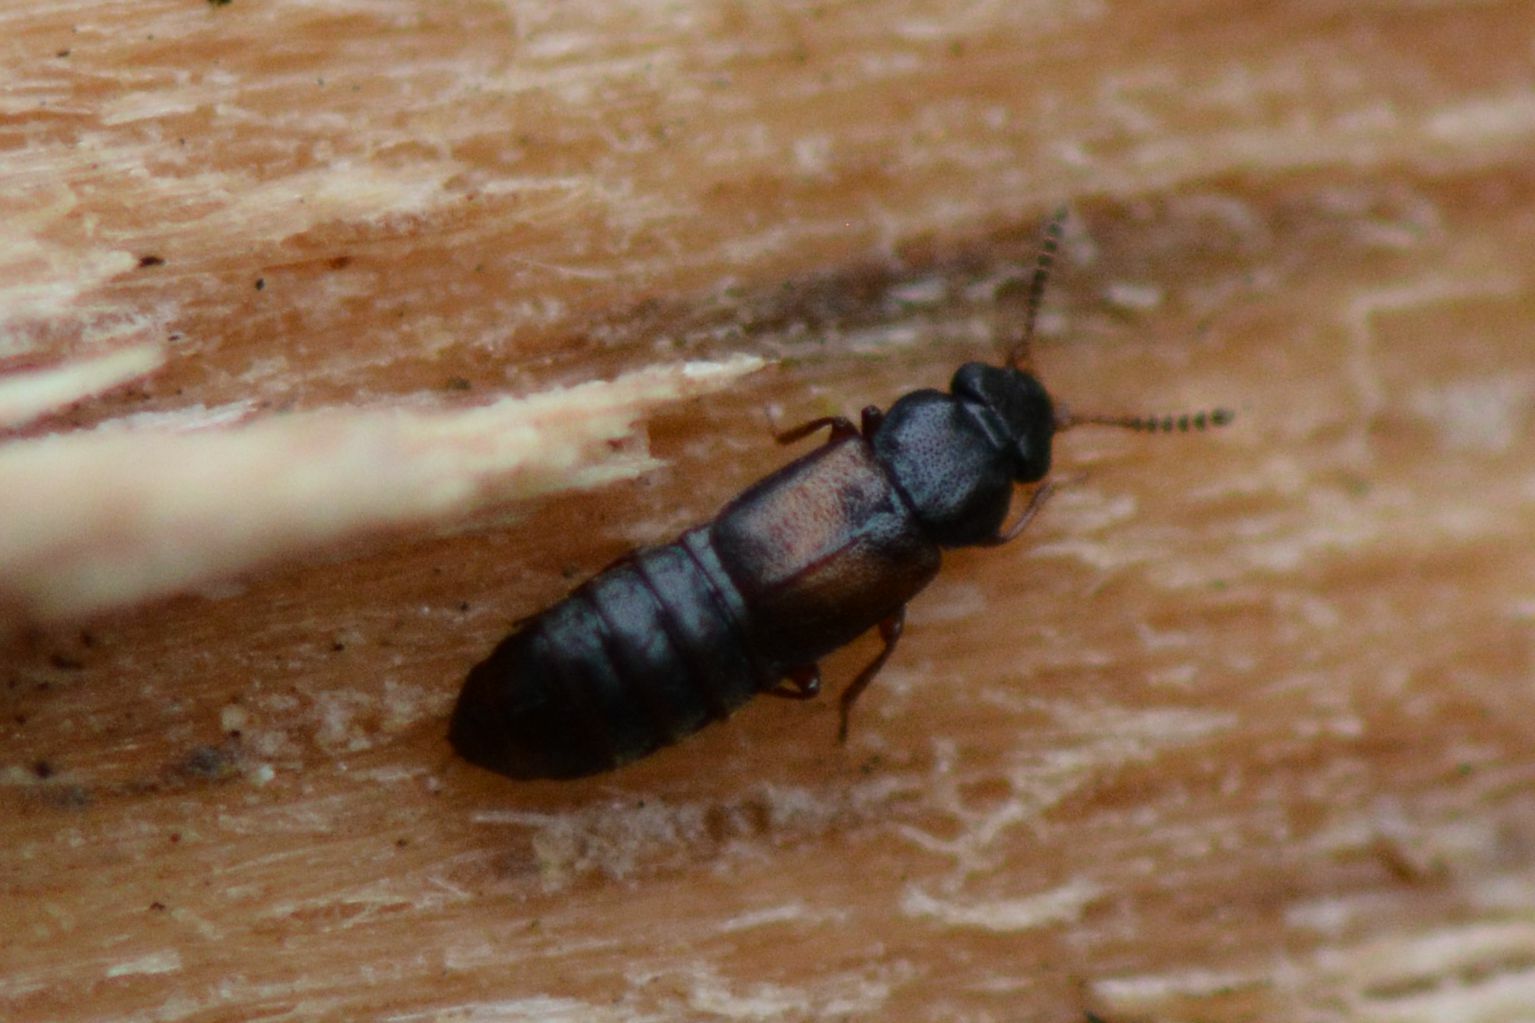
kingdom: Animalia
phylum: Arthropoda
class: Insecta
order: Coleoptera
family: Staphylinidae
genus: Phloeostiba
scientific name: Phloeostiba plana
